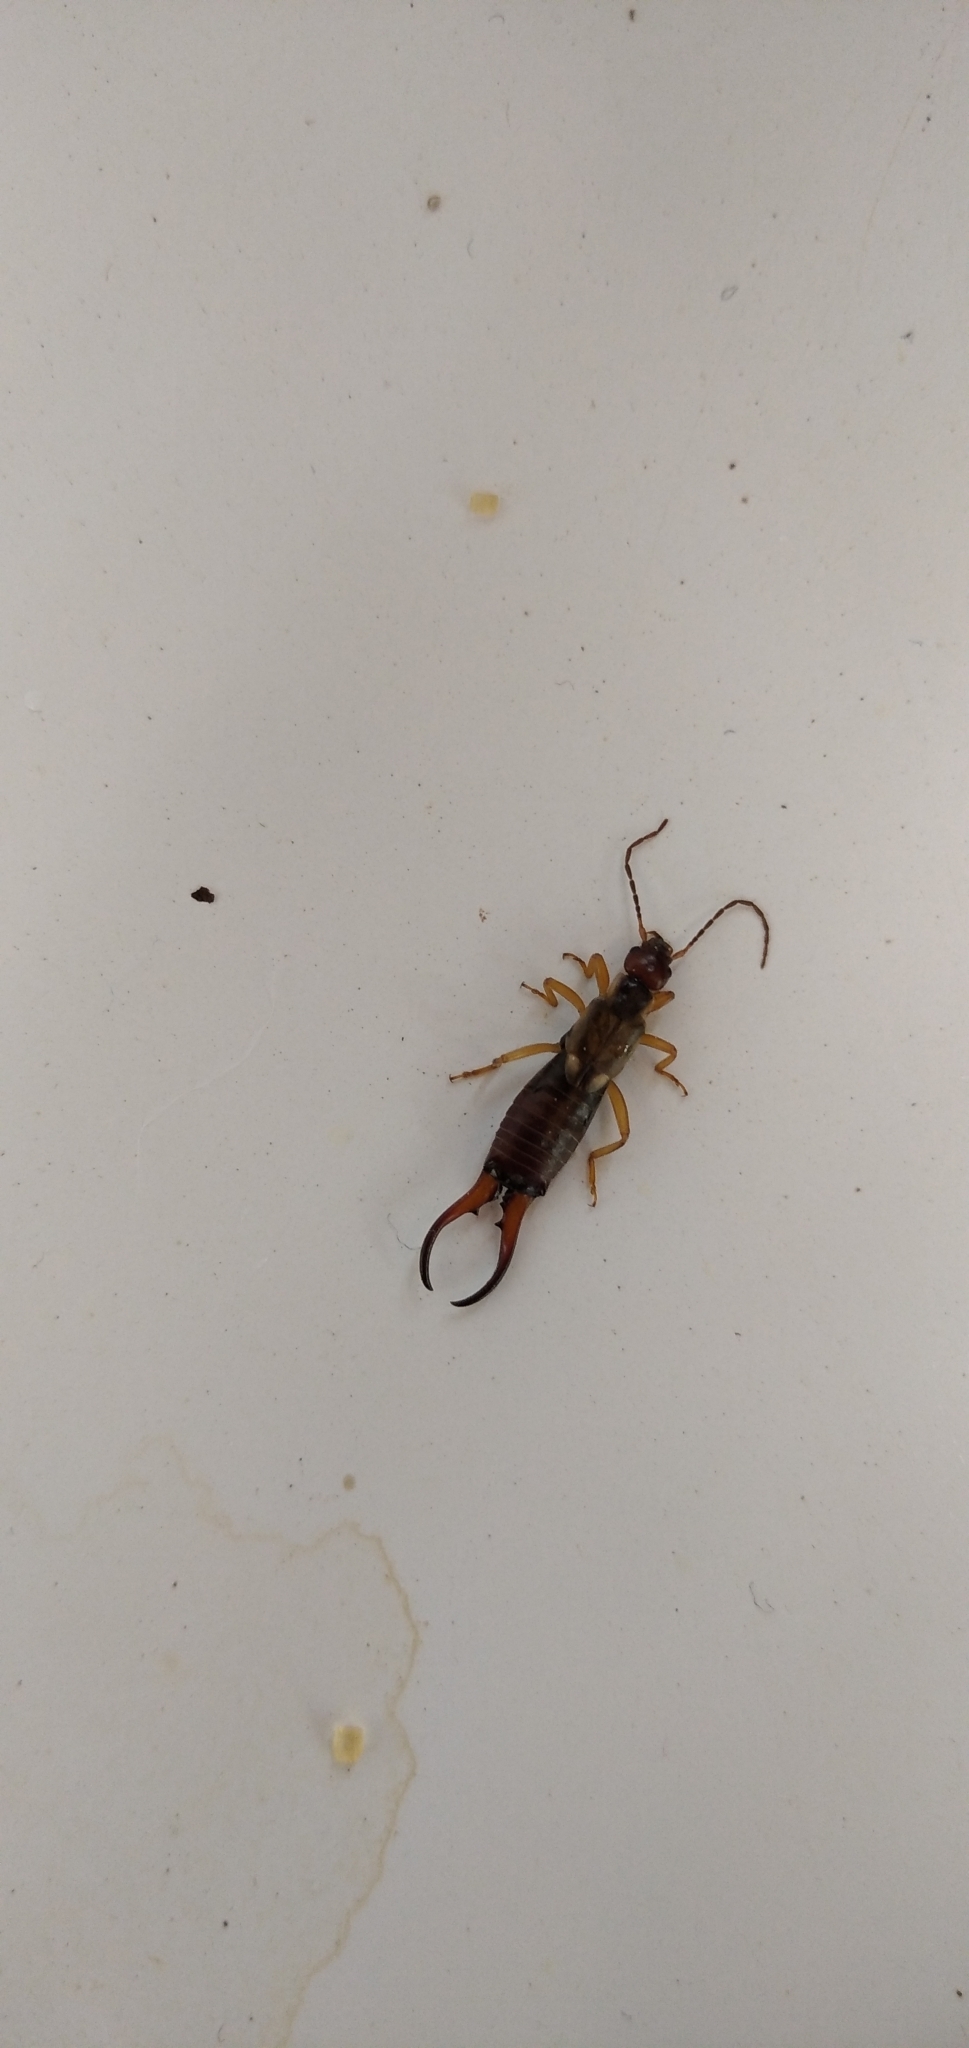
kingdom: Animalia
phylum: Arthropoda
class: Insecta
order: Dermaptera
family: Forficulidae
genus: Forficula
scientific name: Forficula
